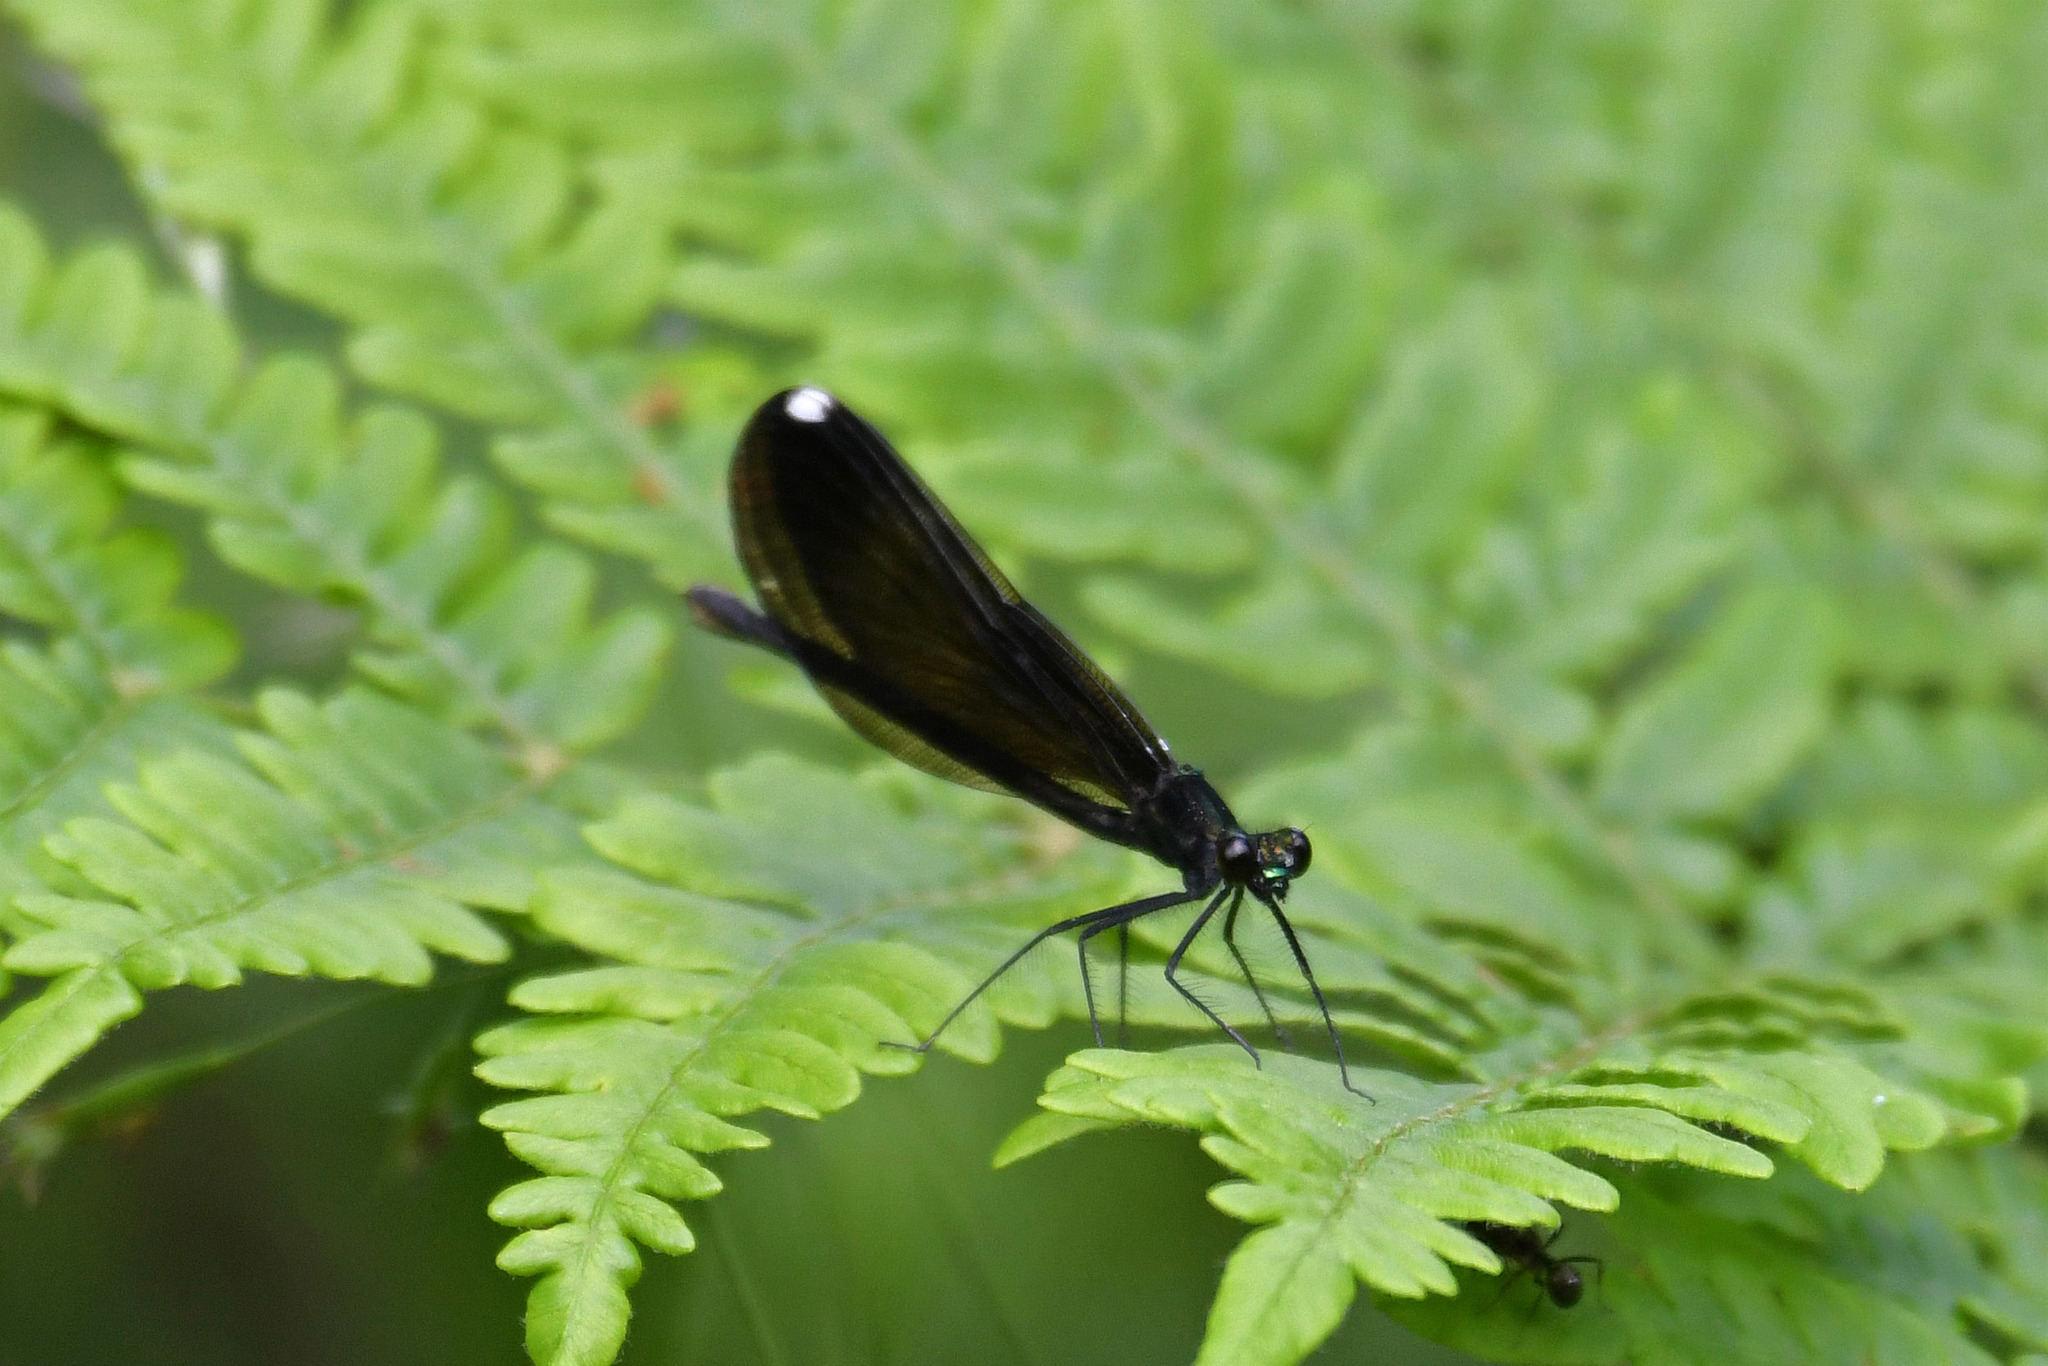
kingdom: Animalia
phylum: Arthropoda
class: Insecta
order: Odonata
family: Calopterygidae
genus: Calopteryx
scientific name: Calopteryx maculata
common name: Ebony jewelwing
